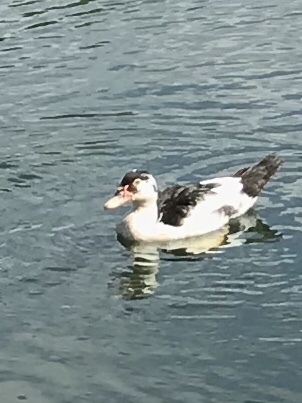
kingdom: Animalia
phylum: Chordata
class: Aves
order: Anseriformes
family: Anatidae
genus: Cairina
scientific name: Cairina moschata
